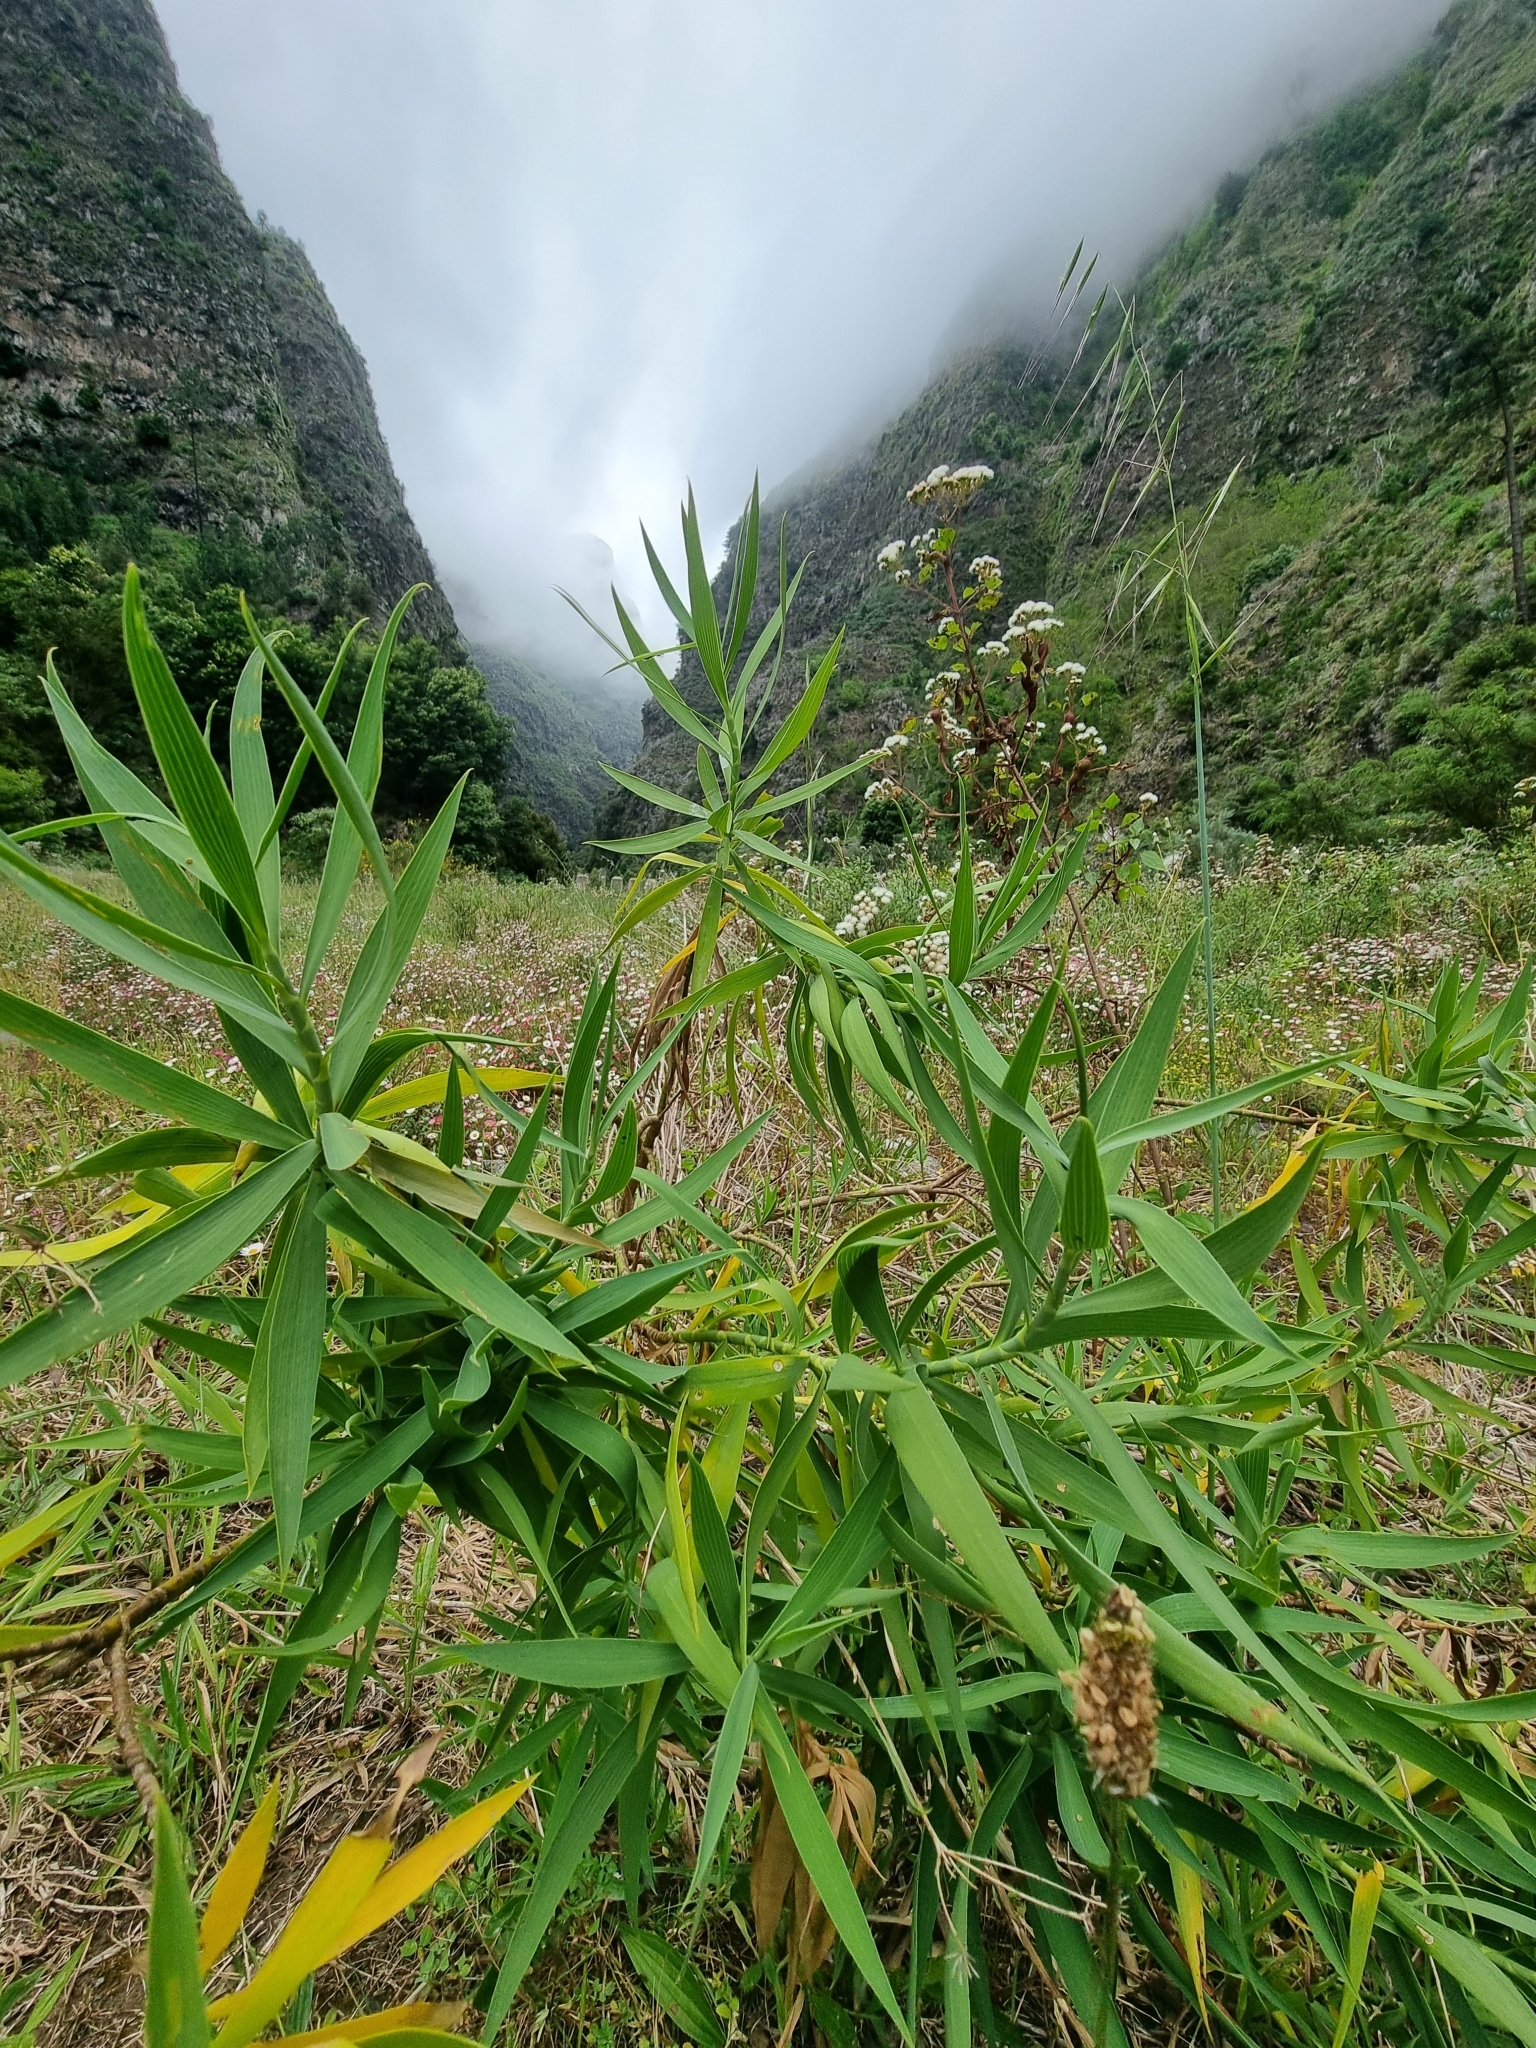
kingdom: Plantae
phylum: Tracheophyta
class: Magnoliopsida
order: Apiales
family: Apiaceae
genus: Bupleurum
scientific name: Bupleurum salicifolium
